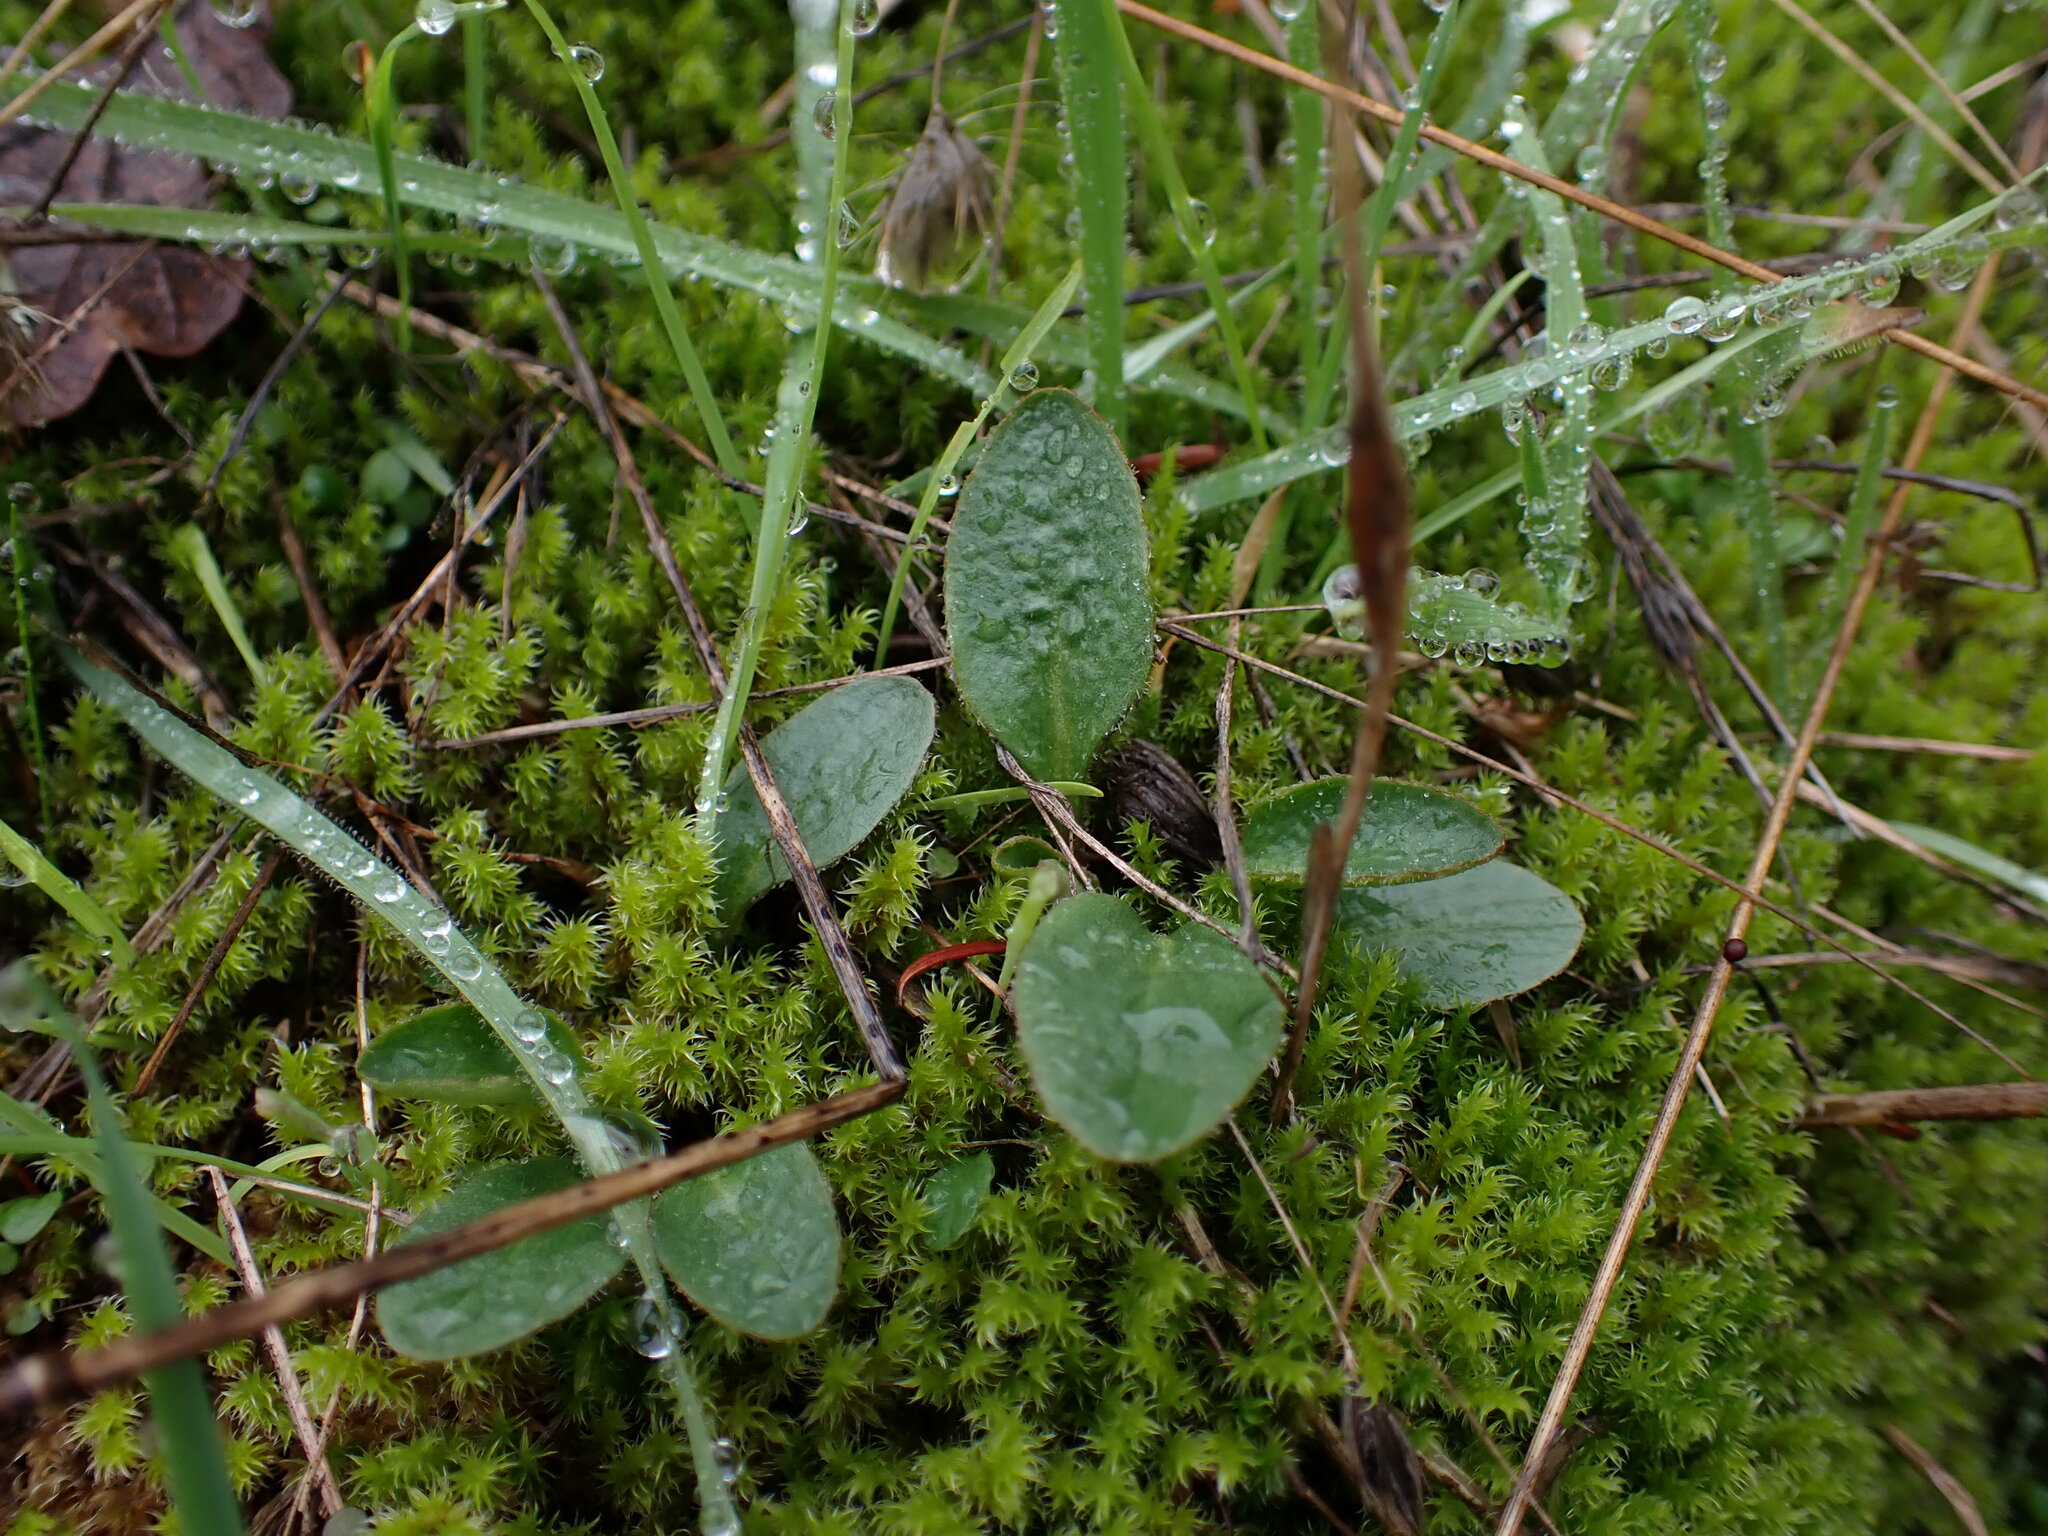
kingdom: Plantae
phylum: Tracheophyta
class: Magnoliopsida
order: Saxifragales
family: Saxifragaceae
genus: Micranthes
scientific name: Micranthes integrifolia
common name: Wholeleaf saxifrage
